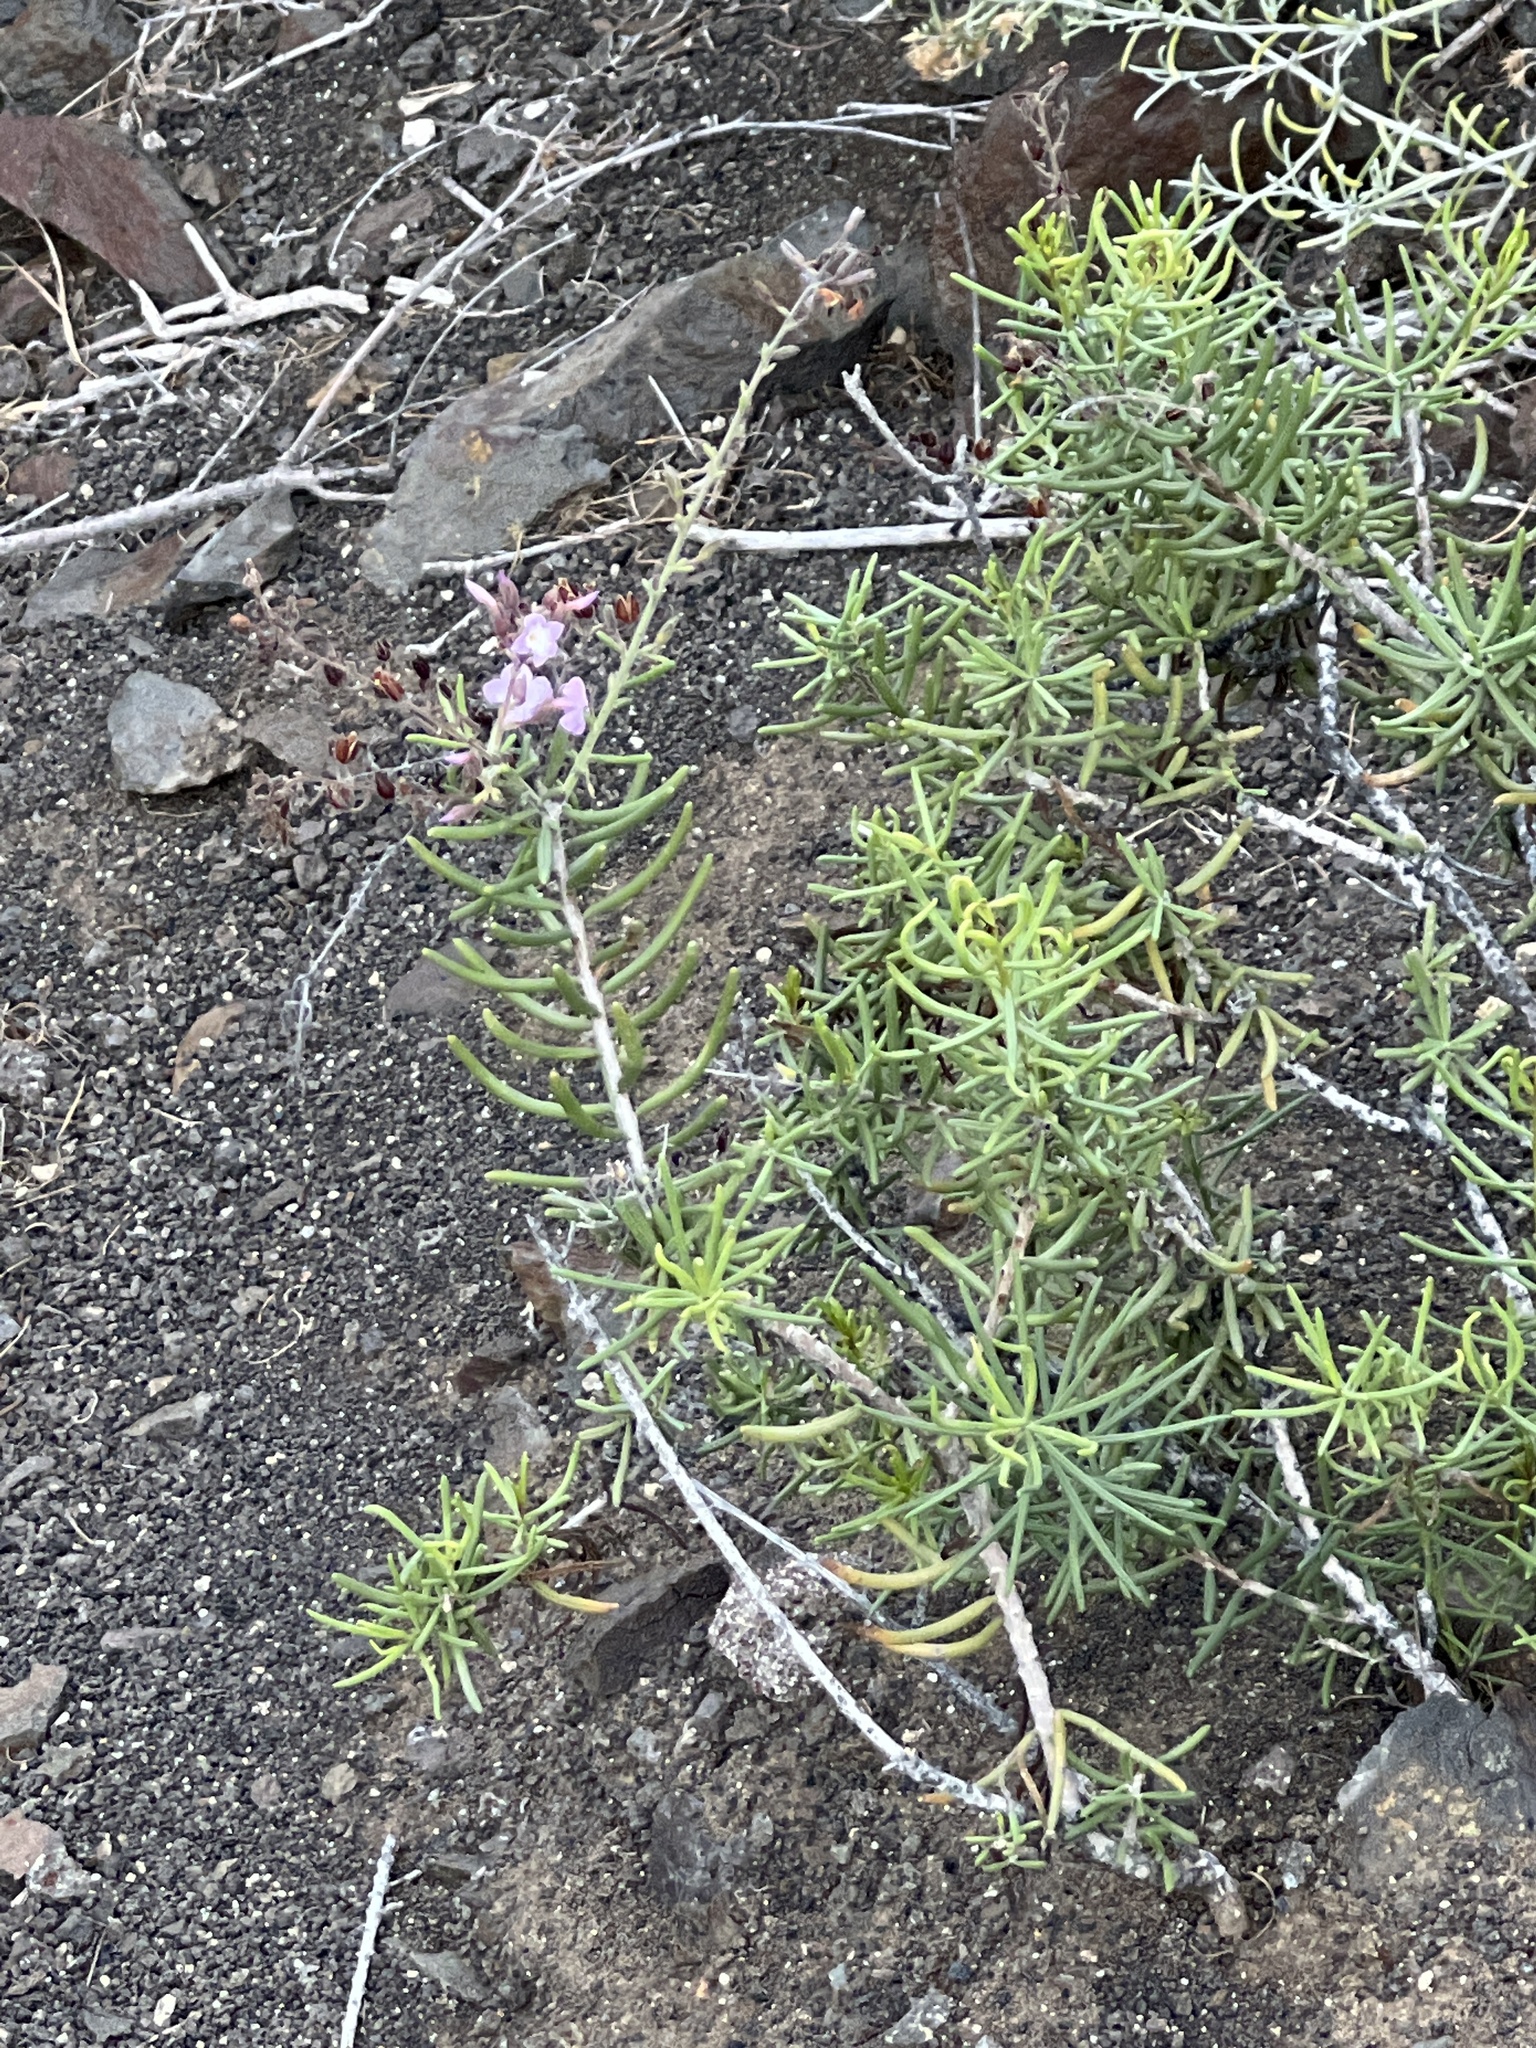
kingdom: Plantae
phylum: Tracheophyta
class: Magnoliopsida
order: Lamiales
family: Plantaginaceae
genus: Campylanthus
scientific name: Campylanthus salsoloides
